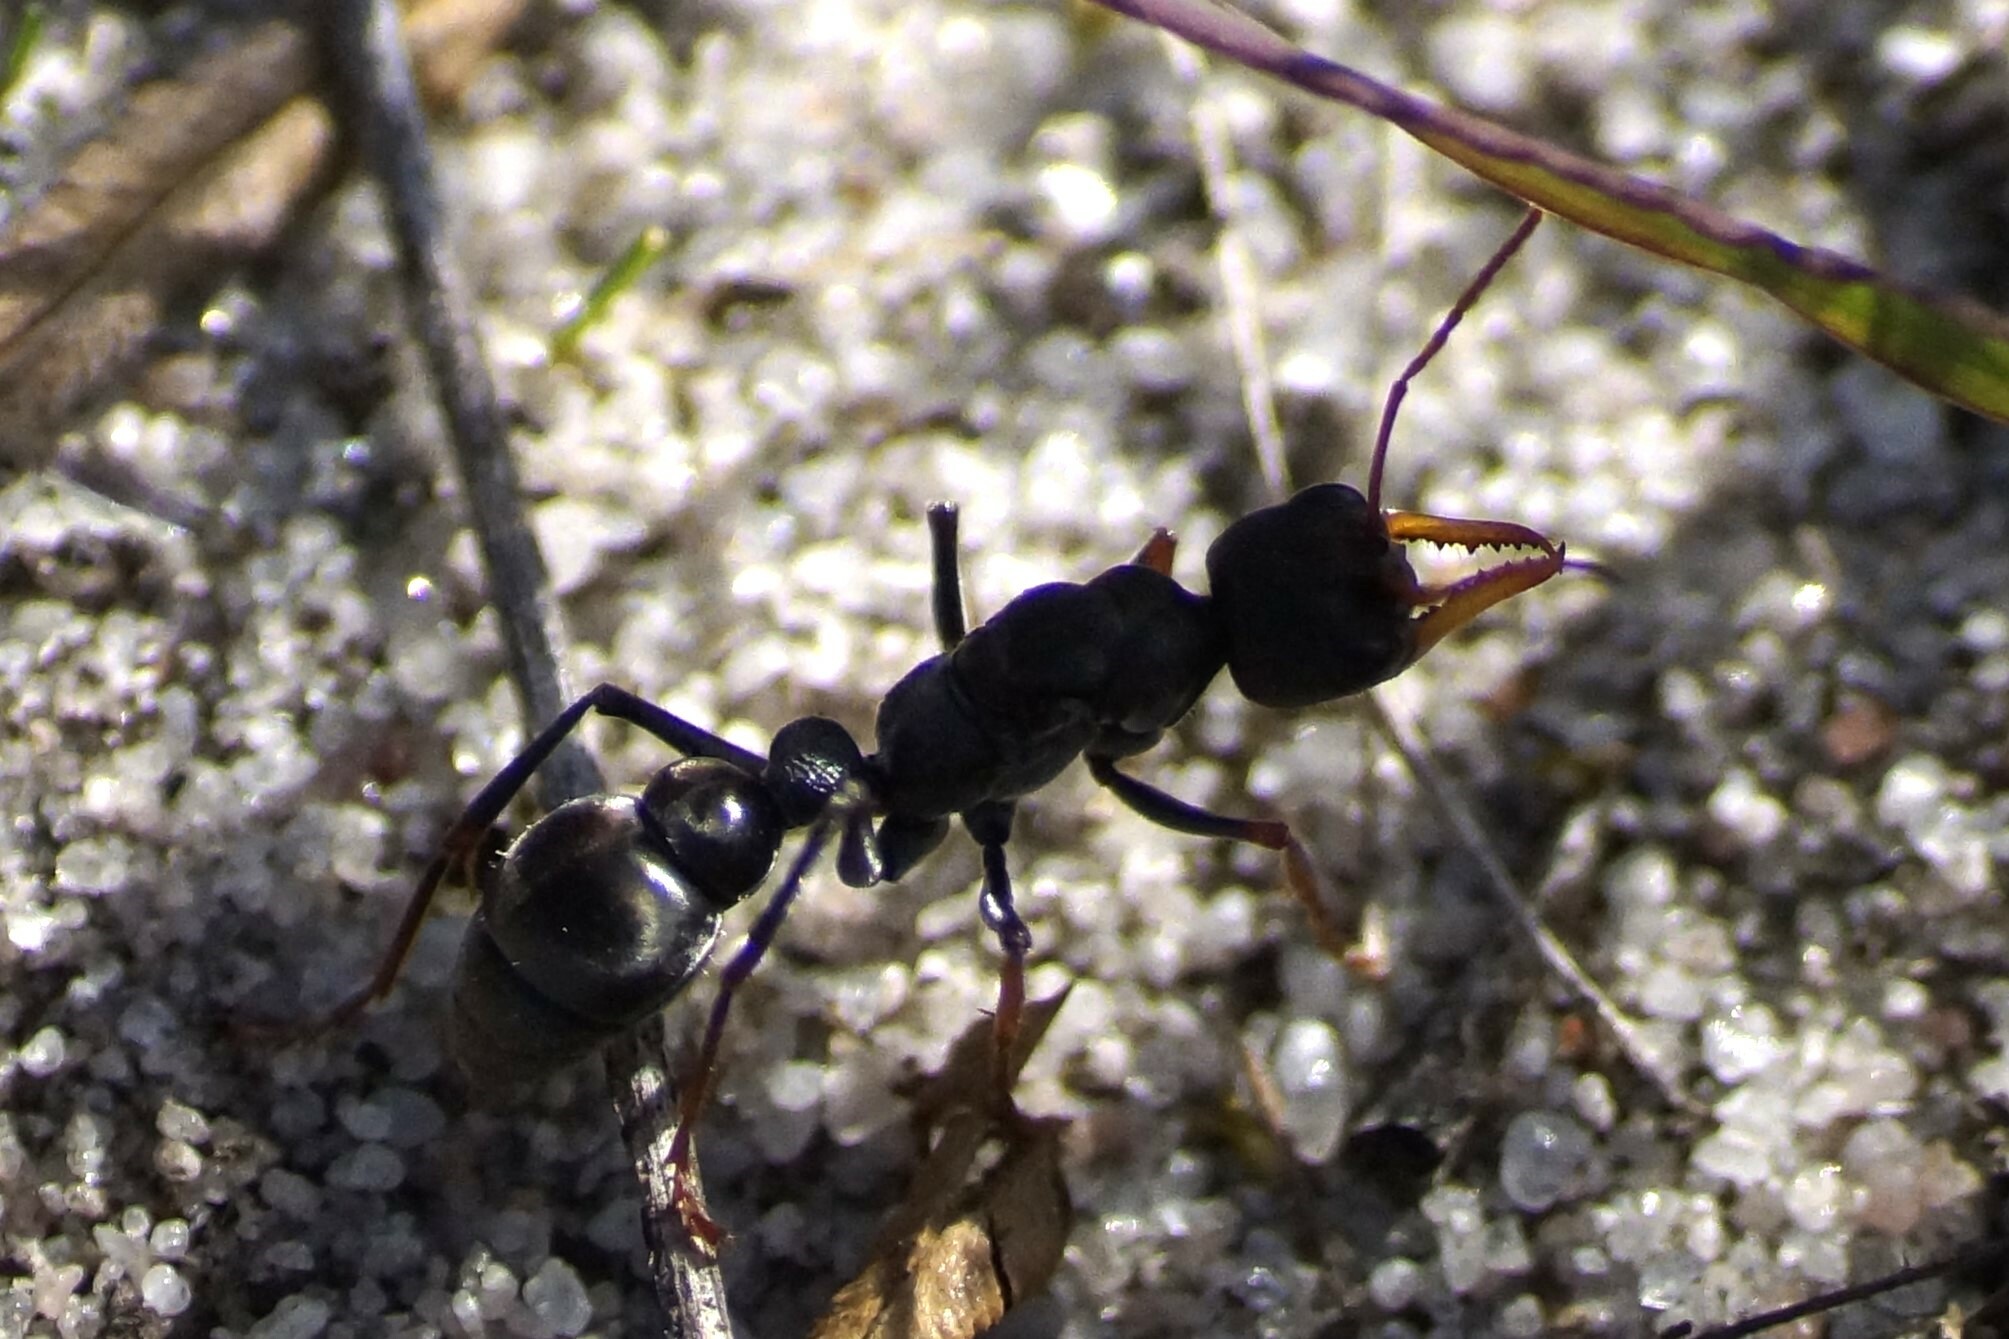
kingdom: Animalia
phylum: Arthropoda
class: Insecta
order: Hymenoptera
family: Formicidae
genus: Myrmecia
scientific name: Myrmecia pilosula
